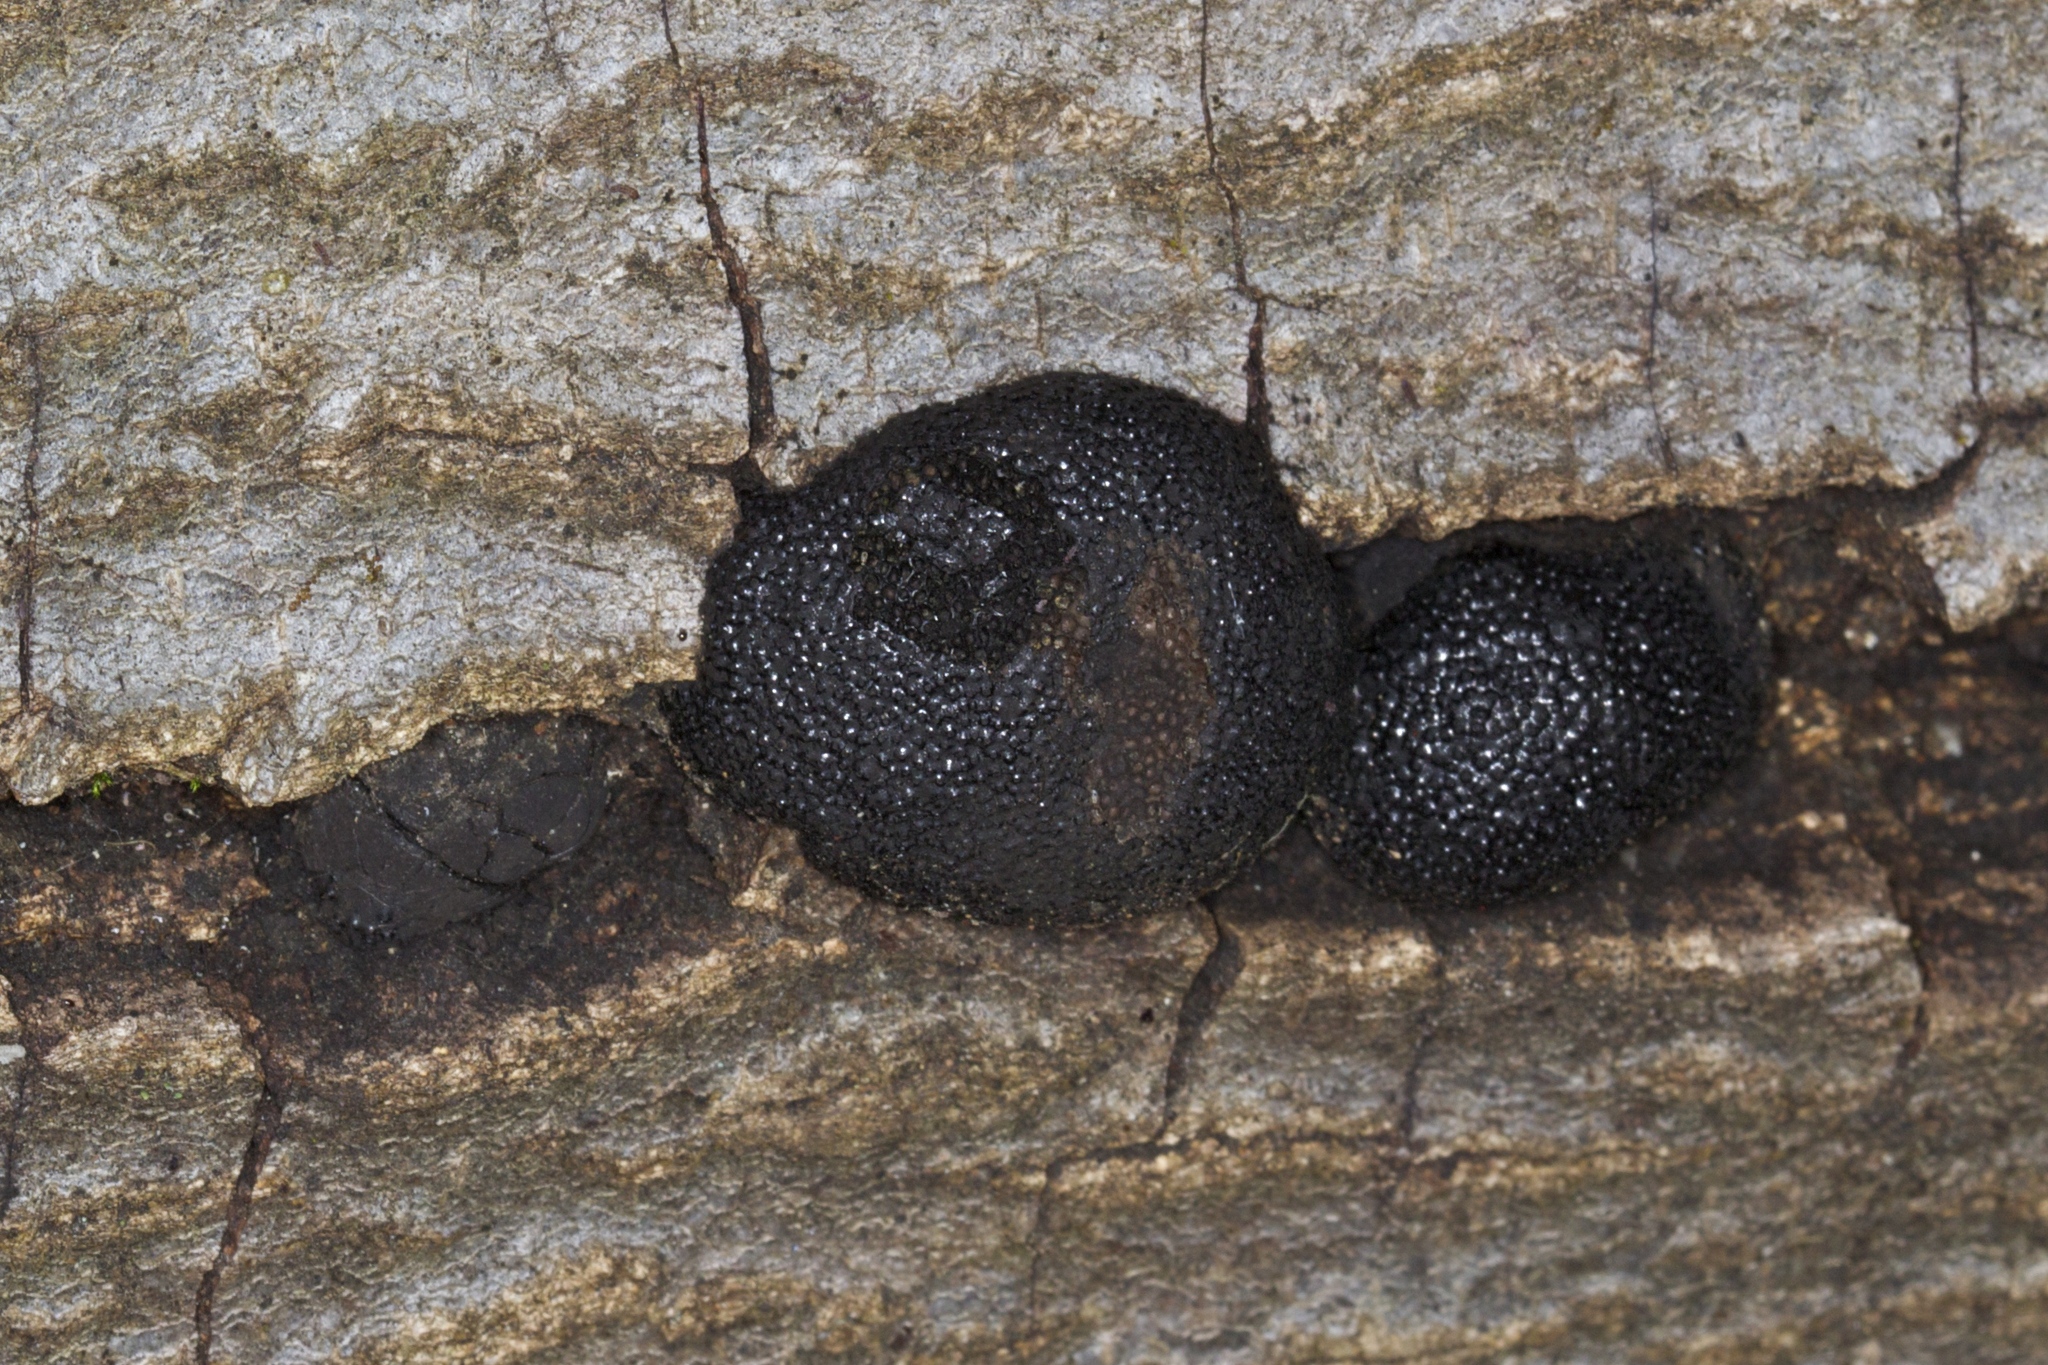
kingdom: Fungi
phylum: Ascomycota
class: Sordariomycetes
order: Xylariales
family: Hypoxylaceae
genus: Annulohypoxylon
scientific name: Annulohypoxylon thouarsianum
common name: Cramp balls
